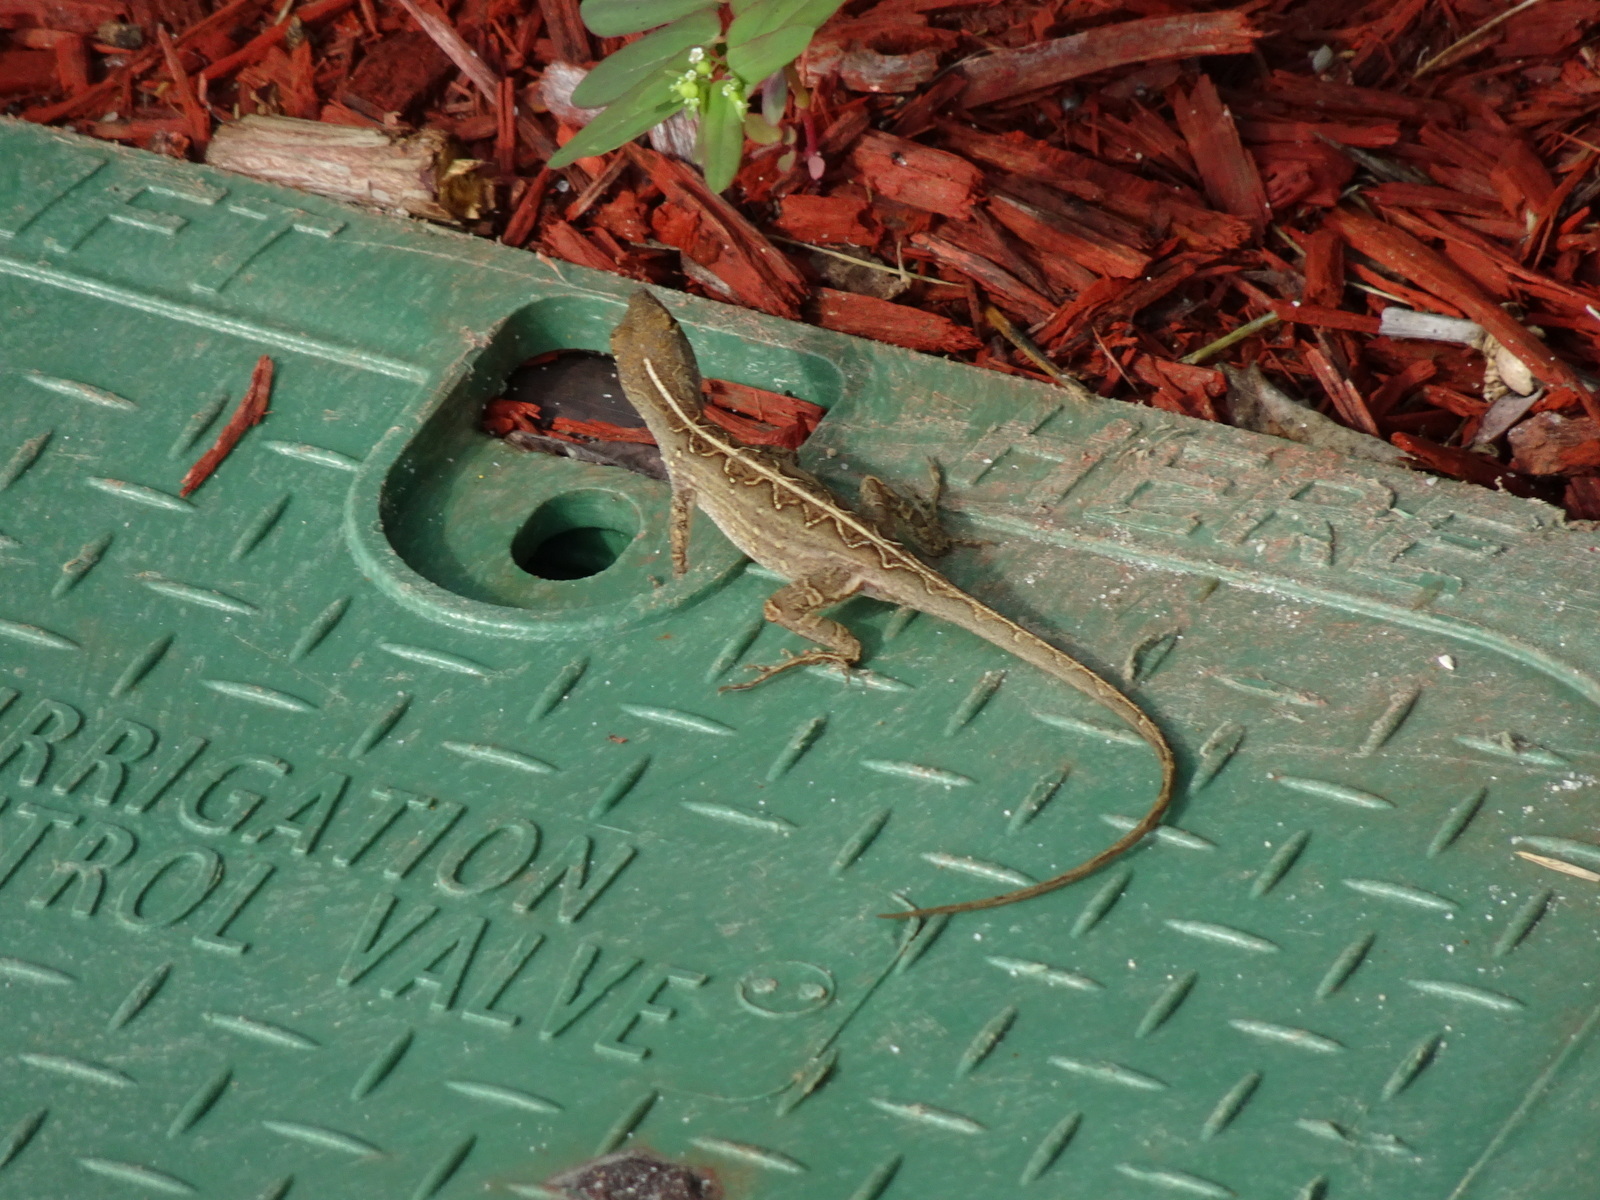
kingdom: Animalia
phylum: Chordata
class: Squamata
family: Dactyloidae
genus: Anolis
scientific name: Anolis sagrei
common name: Brown anole
